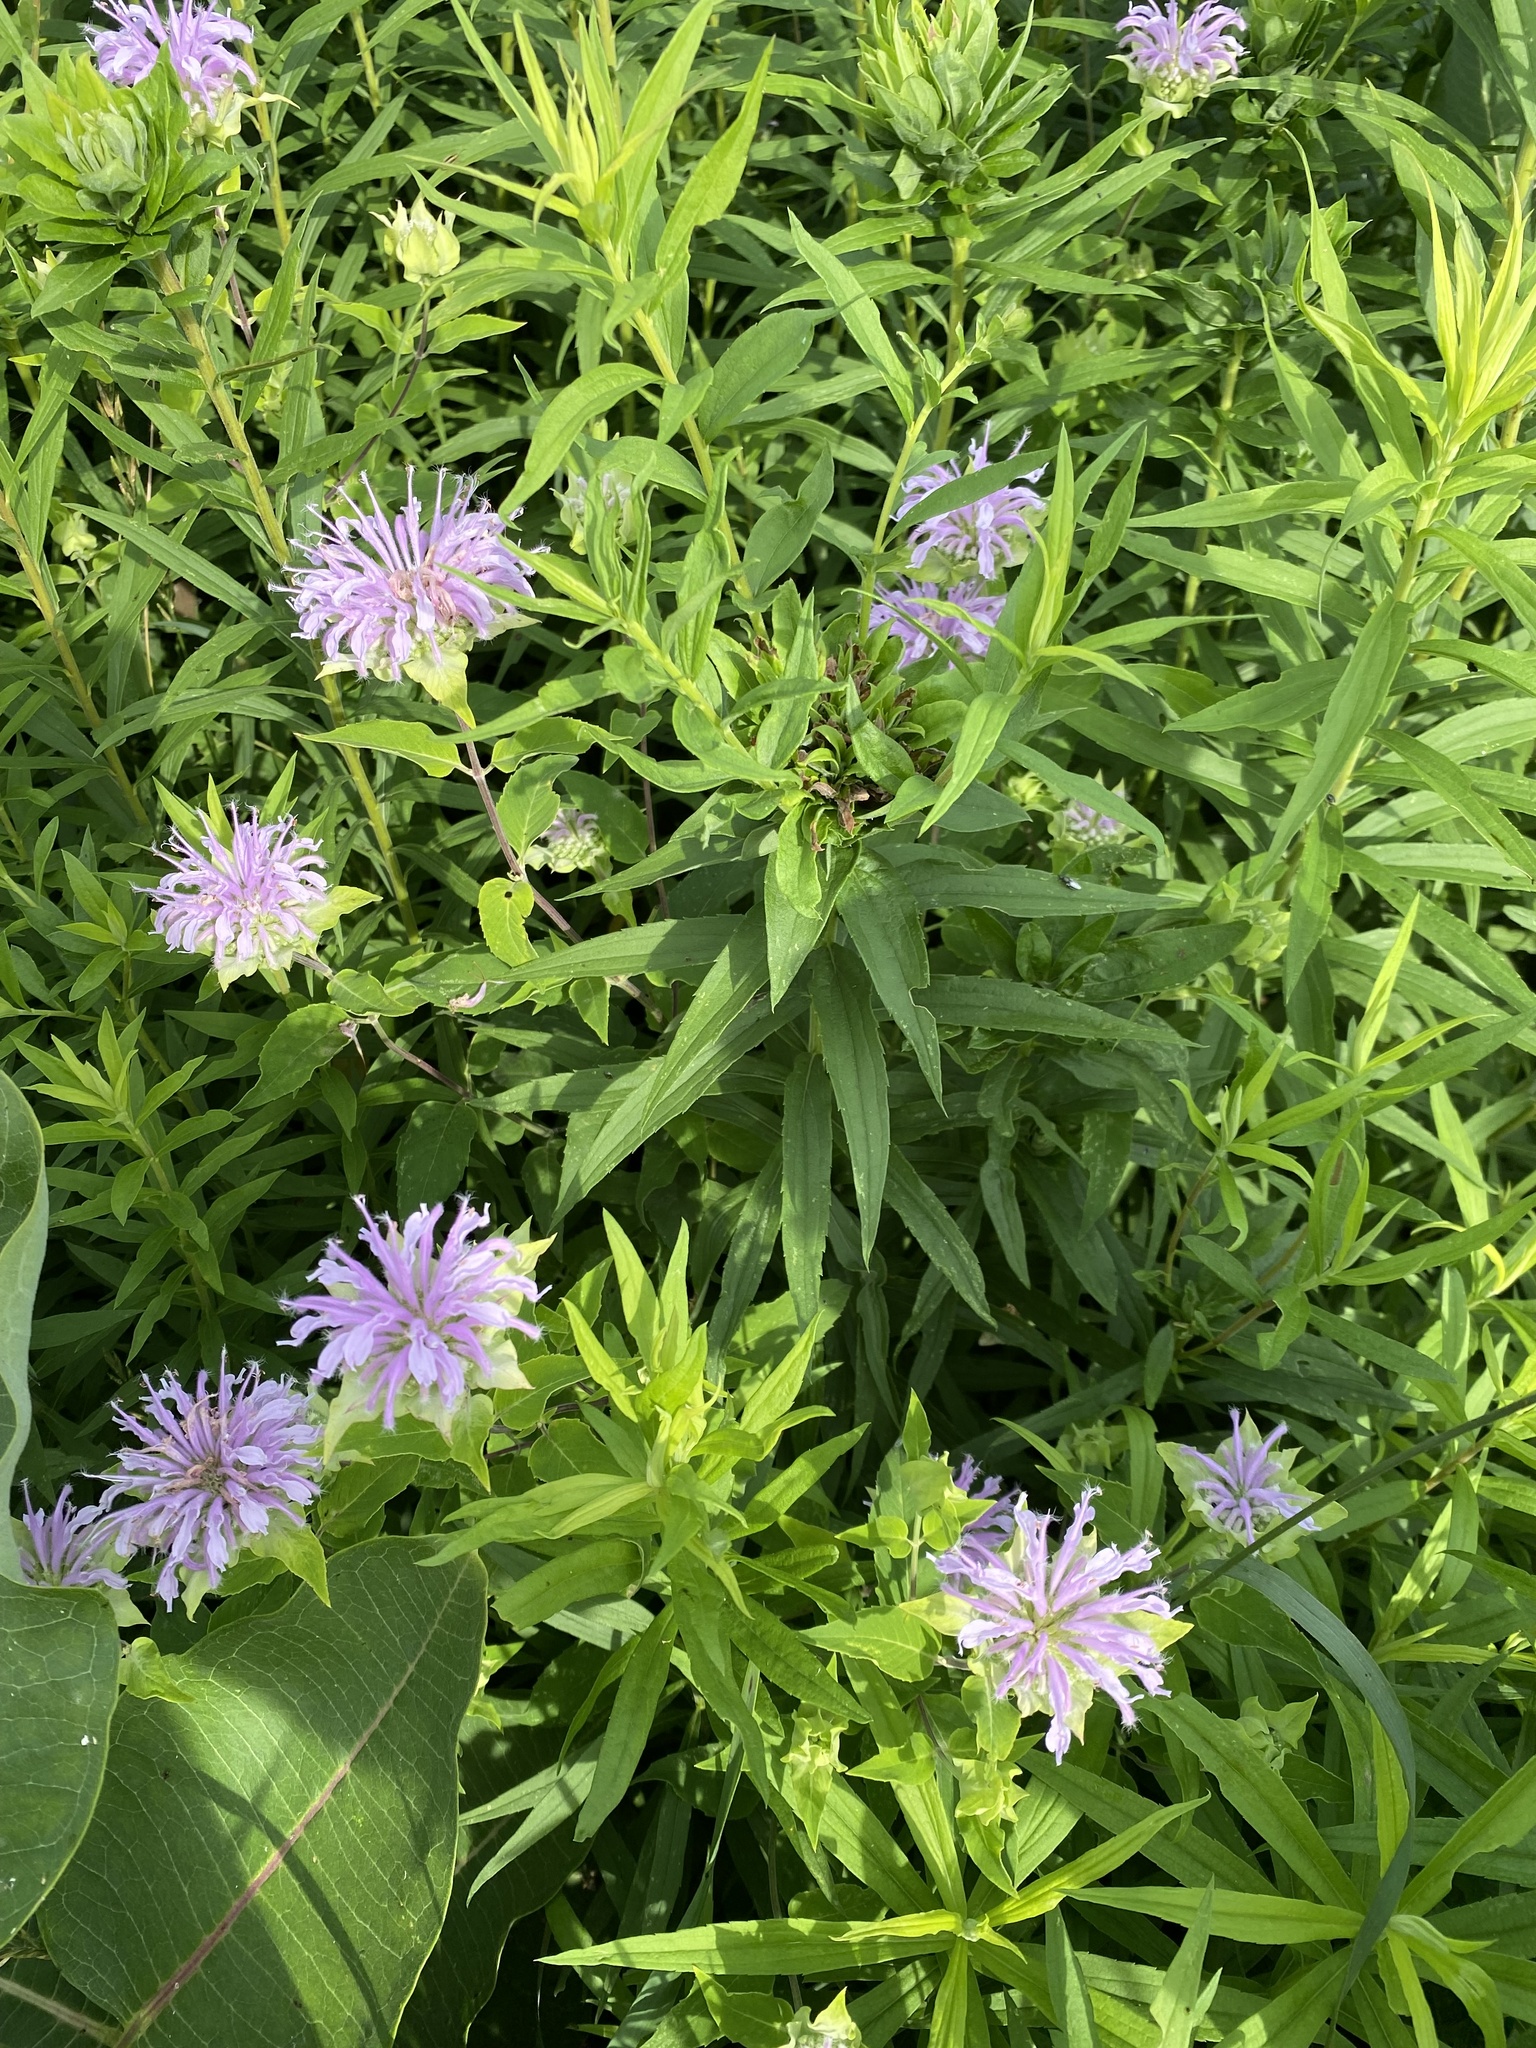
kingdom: Plantae
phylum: Tracheophyta
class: Magnoliopsida
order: Lamiales
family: Lamiaceae
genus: Monarda
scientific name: Monarda fistulosa
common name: Purple beebalm
